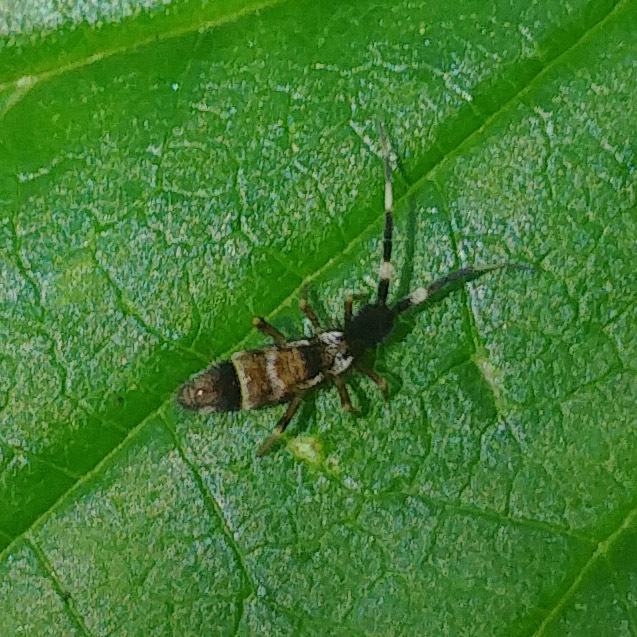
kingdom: Animalia
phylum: Arthropoda
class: Collembola
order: Entomobryomorpha
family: Entomobryidae
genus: Entomobrya
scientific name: Entomobrya nivalis
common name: Cosmopolitan springtail
